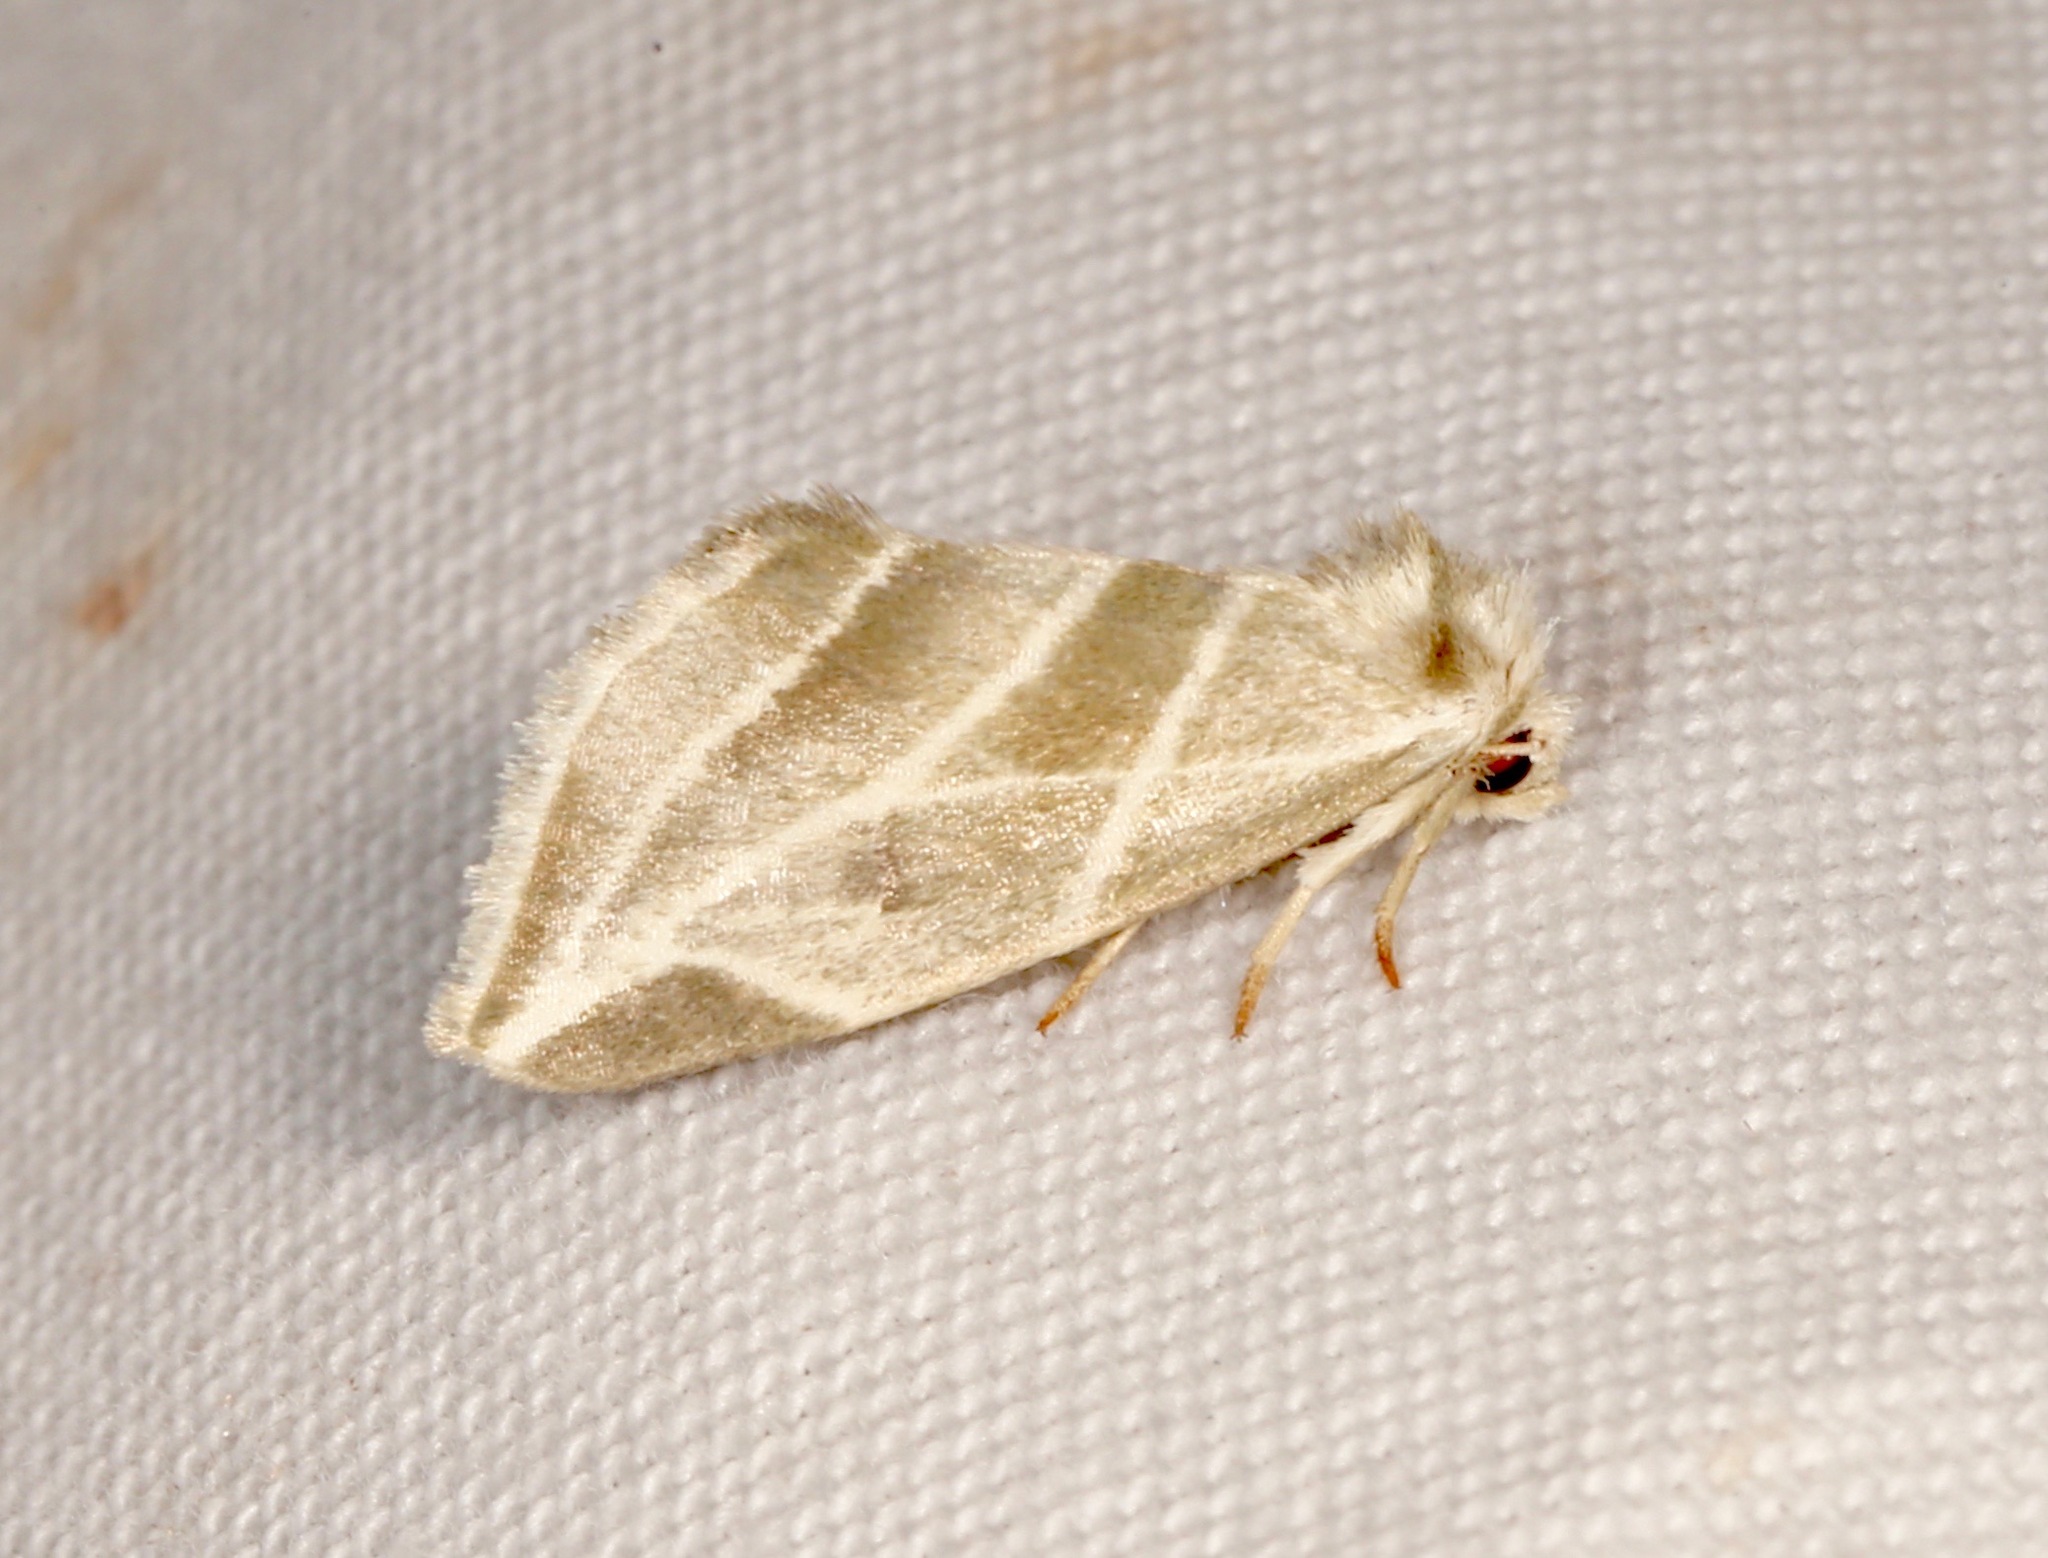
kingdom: Animalia
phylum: Arthropoda
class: Insecta
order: Lepidoptera
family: Noctuidae
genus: Plagiomimicus
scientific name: Plagiomimicus tepperi
